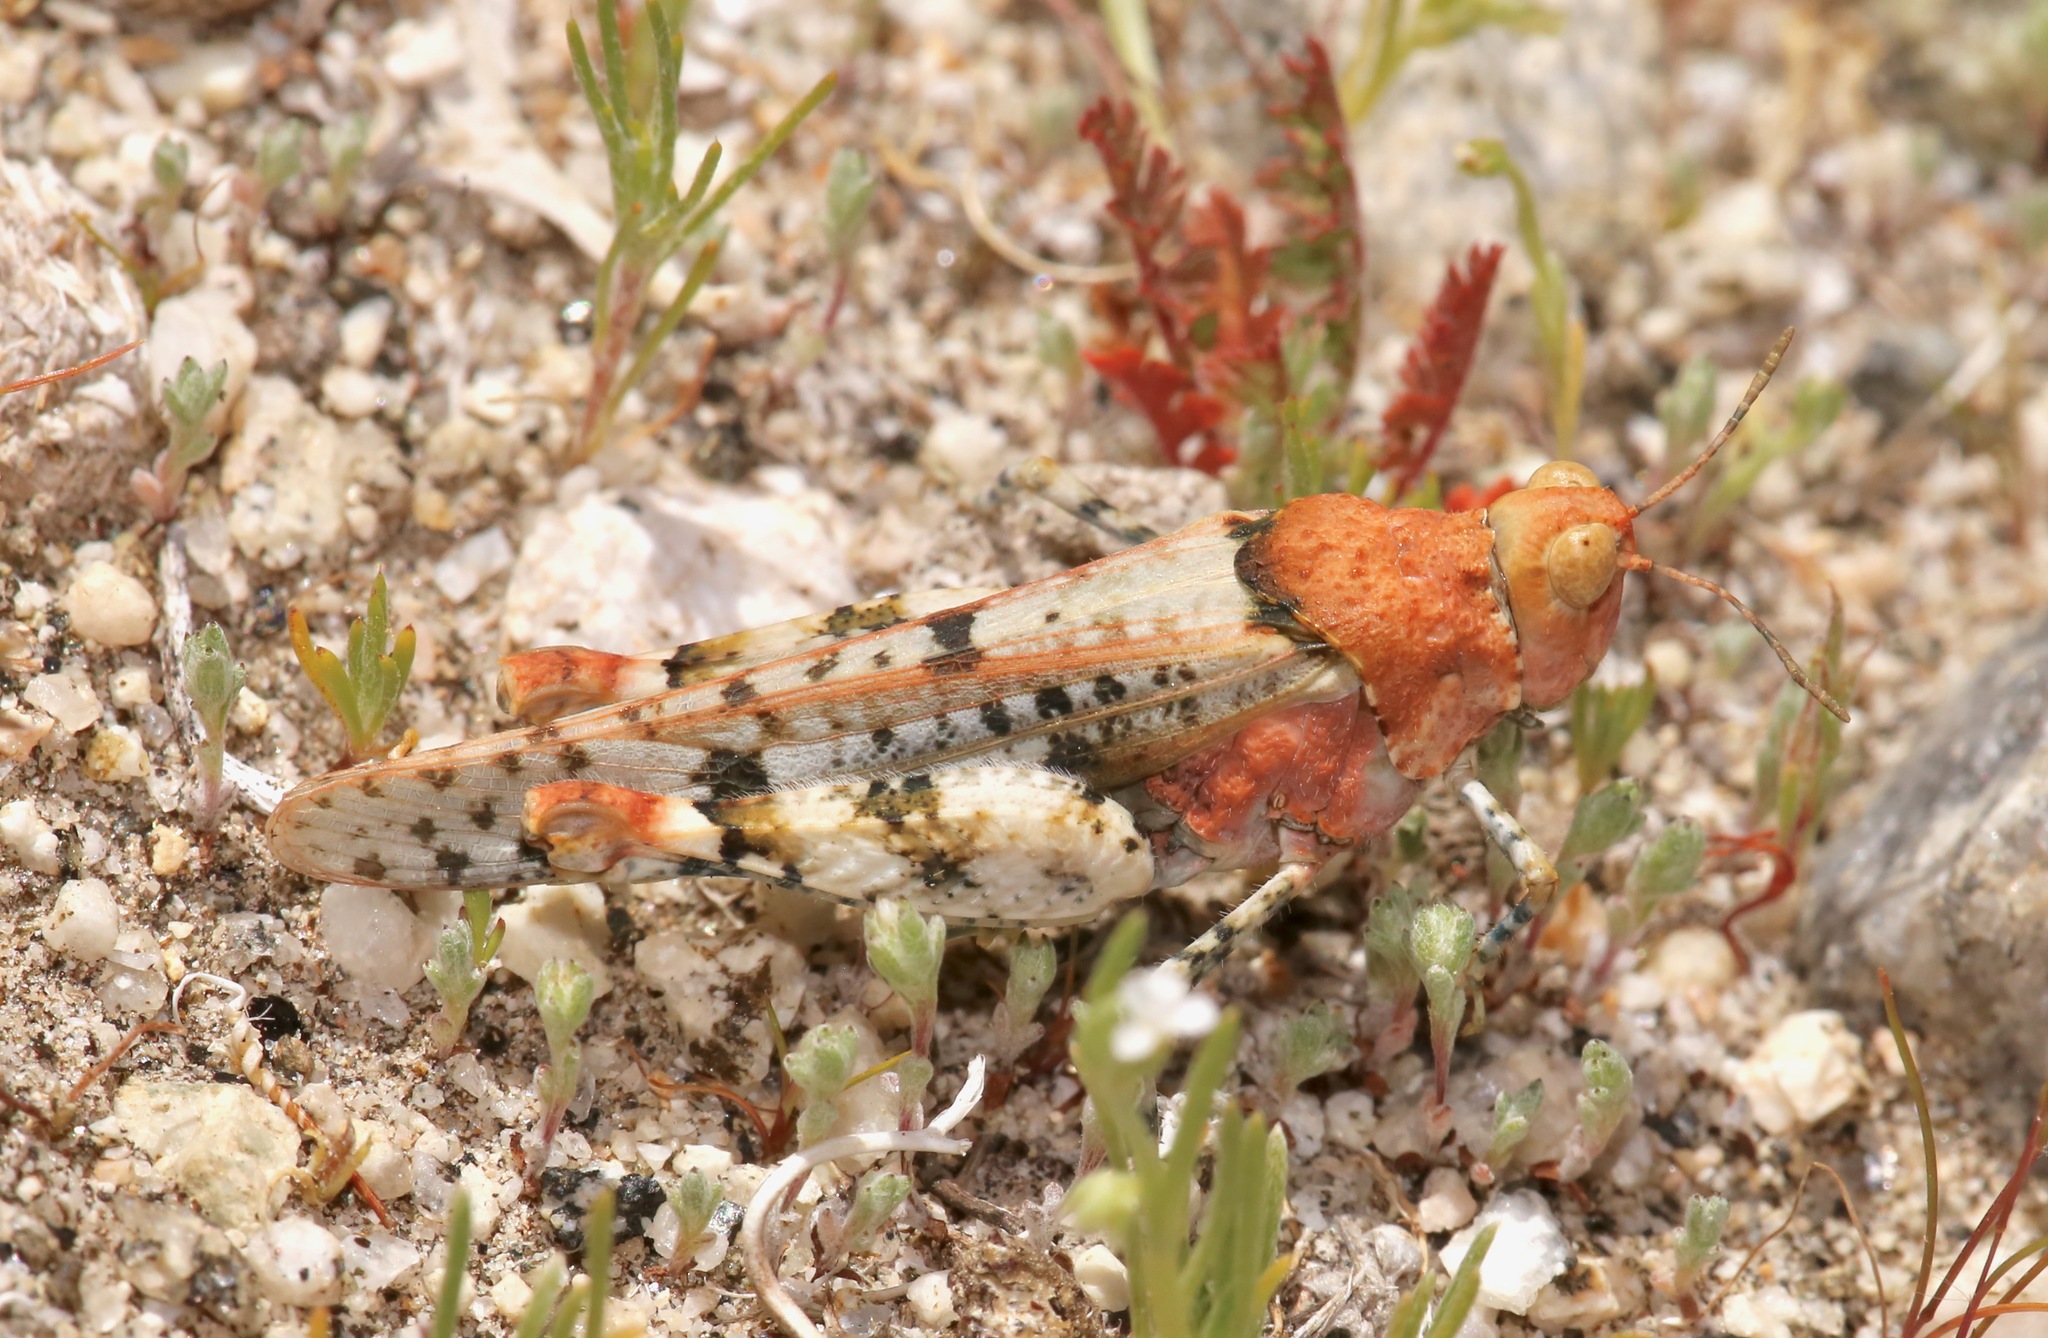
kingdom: Animalia
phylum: Arthropoda
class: Insecta
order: Orthoptera
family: Acrididae
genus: Cibolacris
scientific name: Cibolacris parviceps
